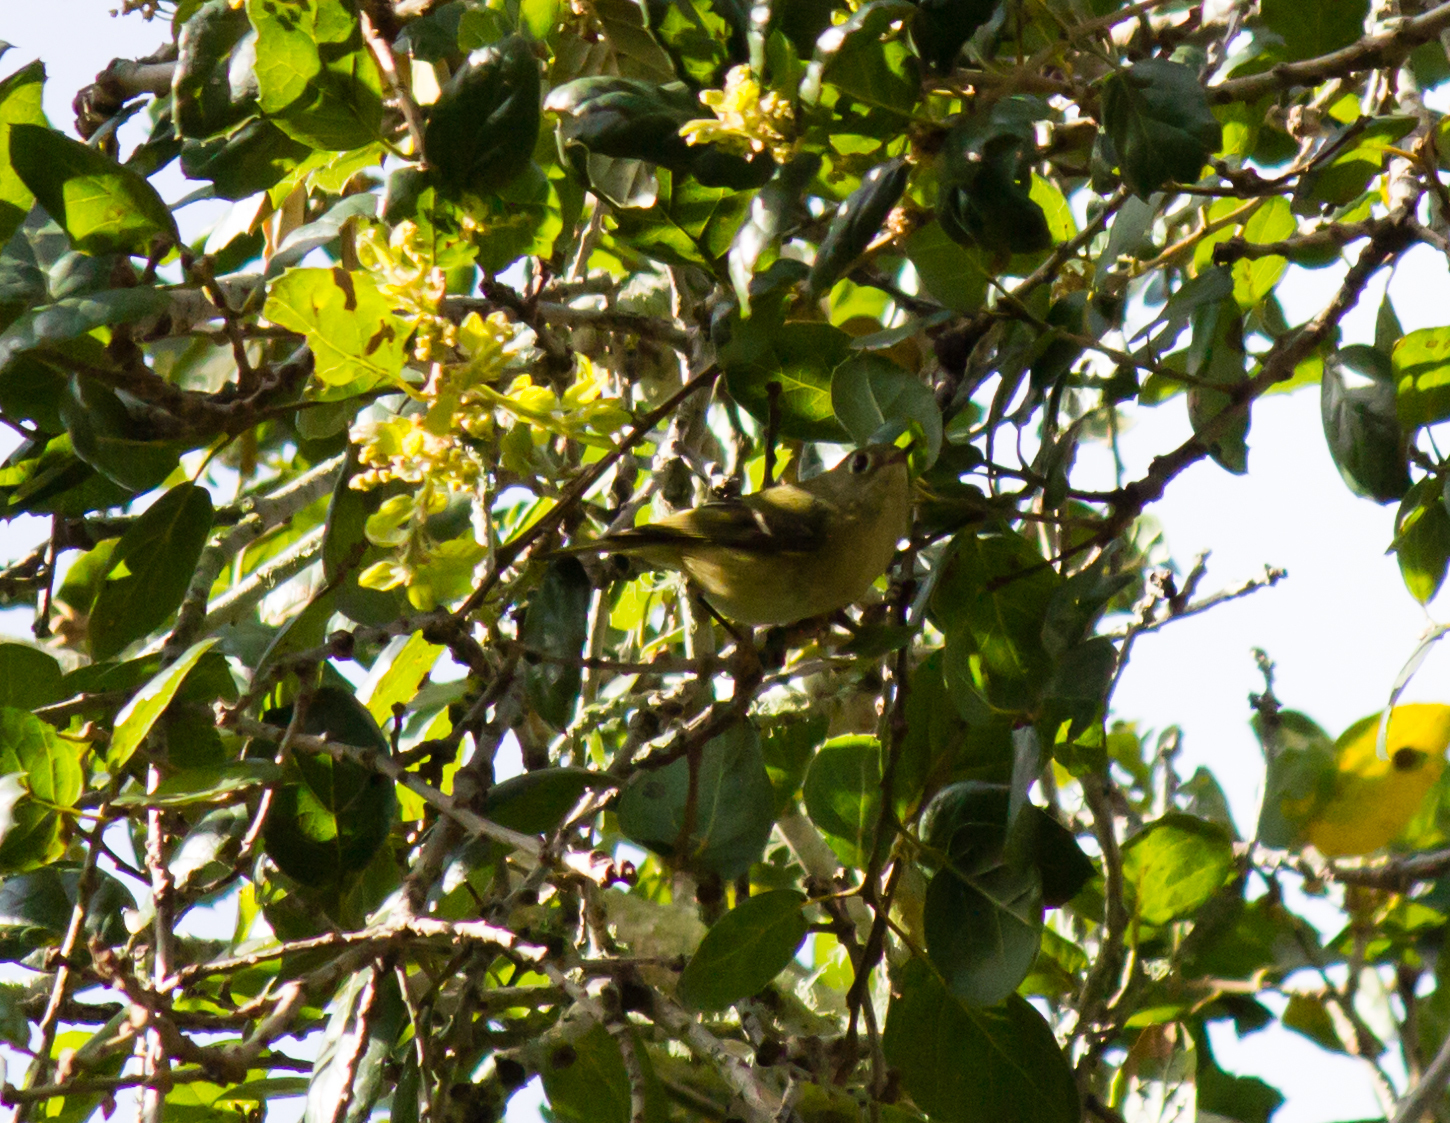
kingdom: Animalia
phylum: Chordata
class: Aves
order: Passeriformes
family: Regulidae
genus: Regulus
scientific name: Regulus calendula
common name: Ruby-crowned kinglet
